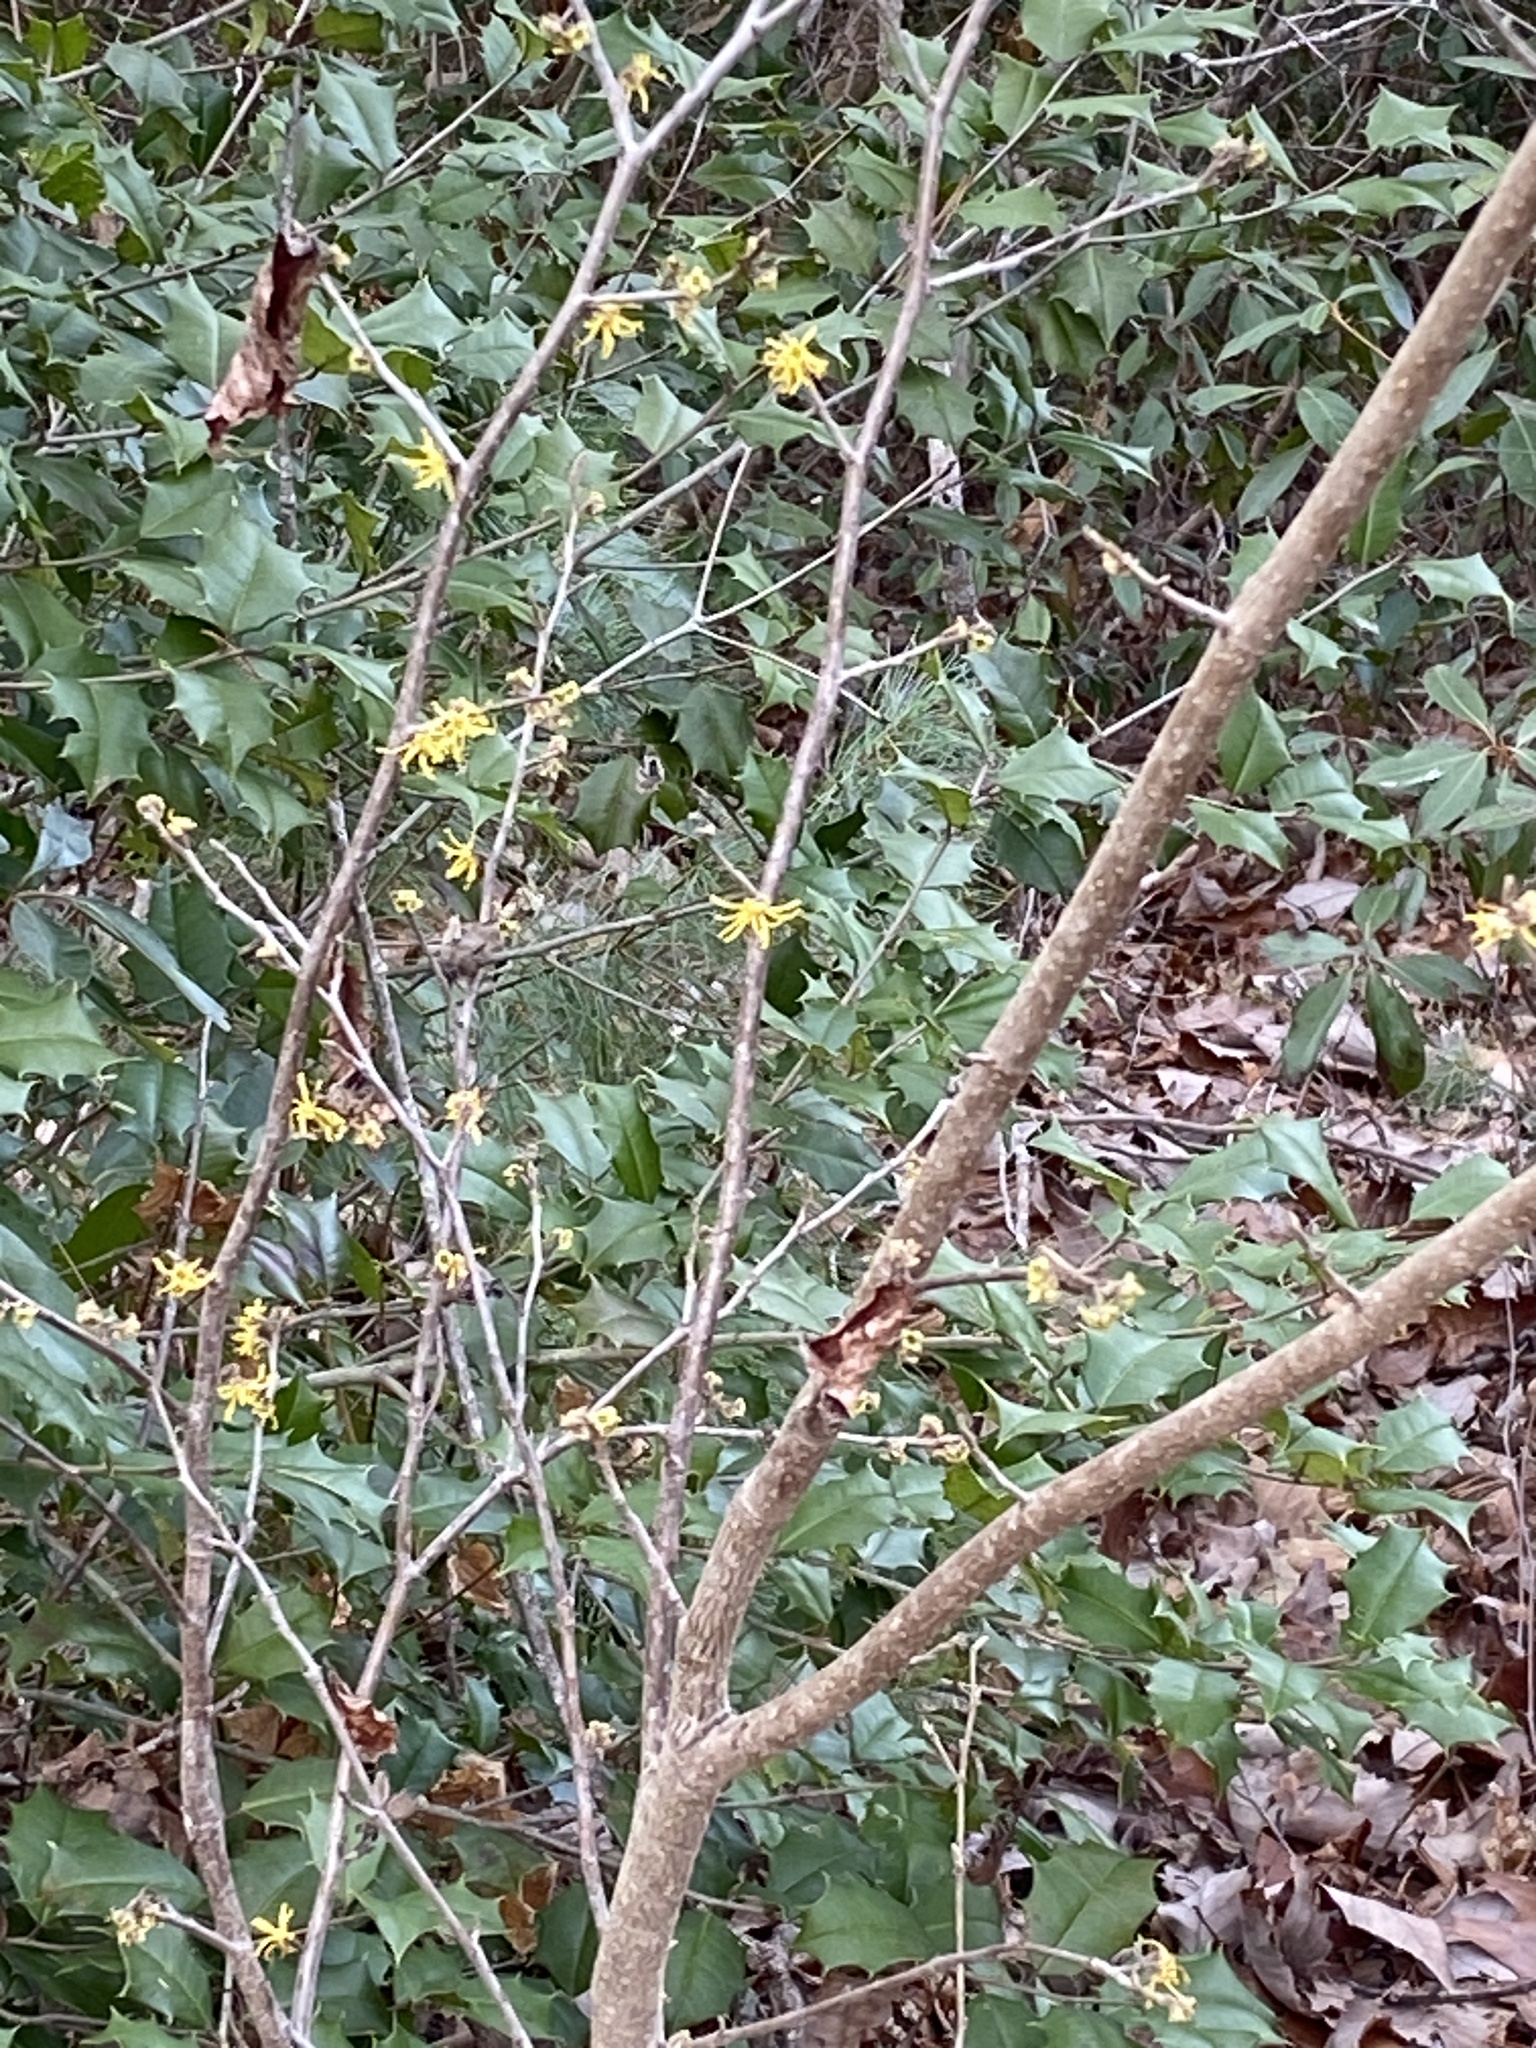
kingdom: Plantae
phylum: Tracheophyta
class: Magnoliopsida
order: Saxifragales
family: Hamamelidaceae
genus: Hamamelis
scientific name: Hamamelis virginiana
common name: Witch-hazel
